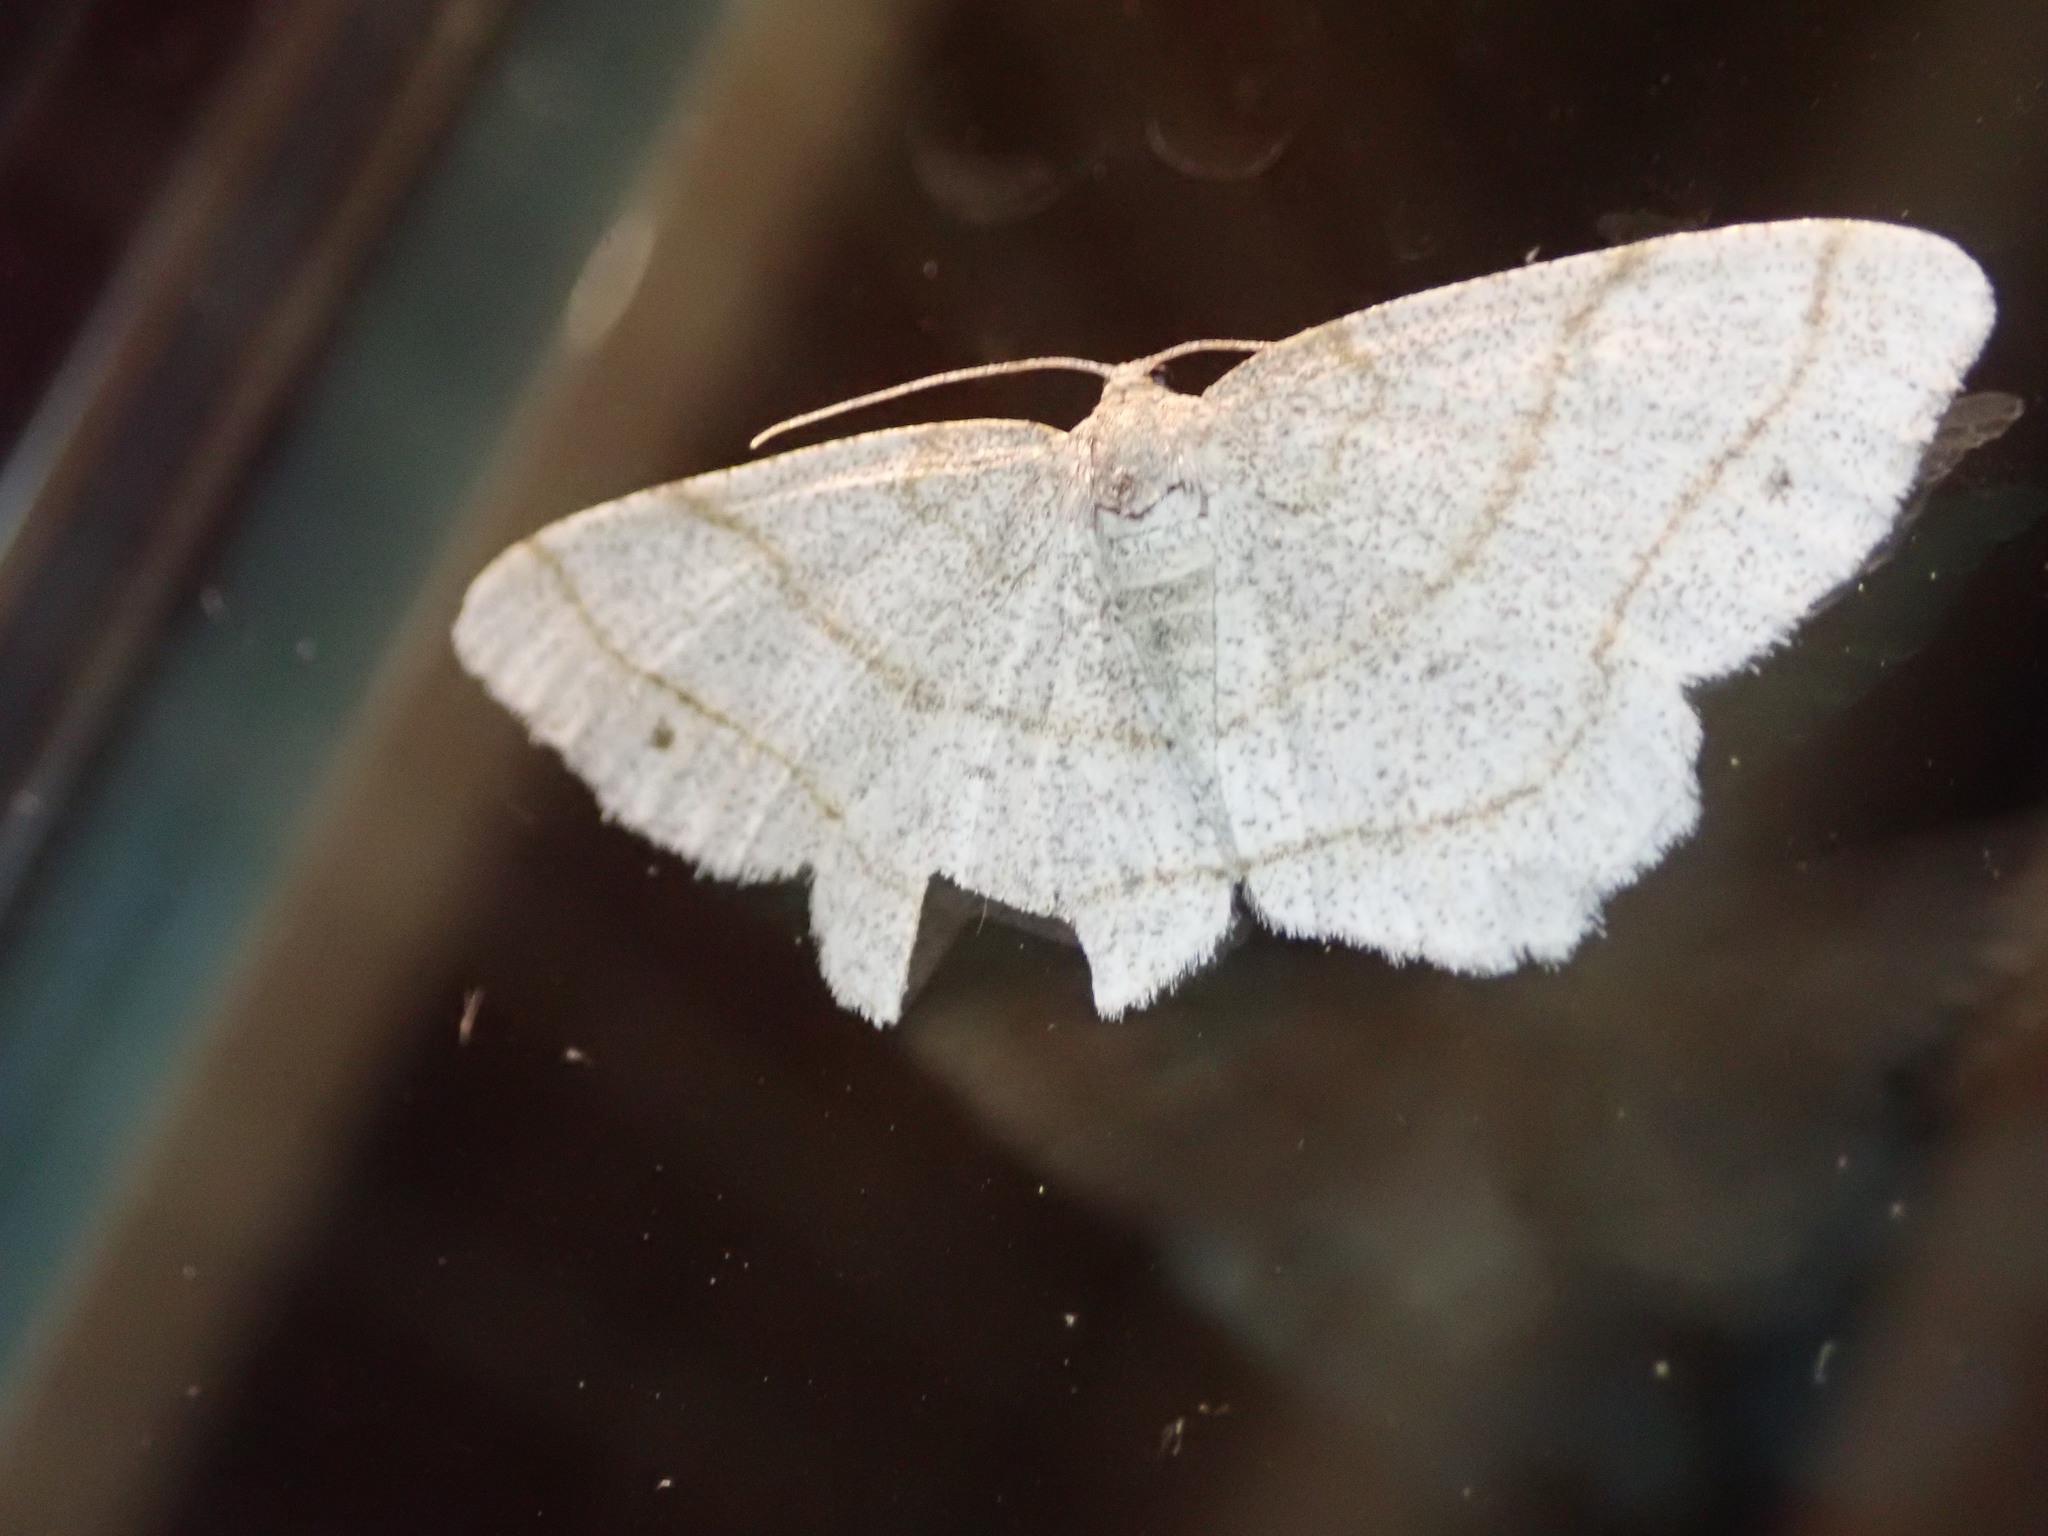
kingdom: Animalia
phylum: Arthropoda
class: Insecta
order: Lepidoptera
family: Geometridae
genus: Trigrammia
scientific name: Trigrammia quadrinotaria
